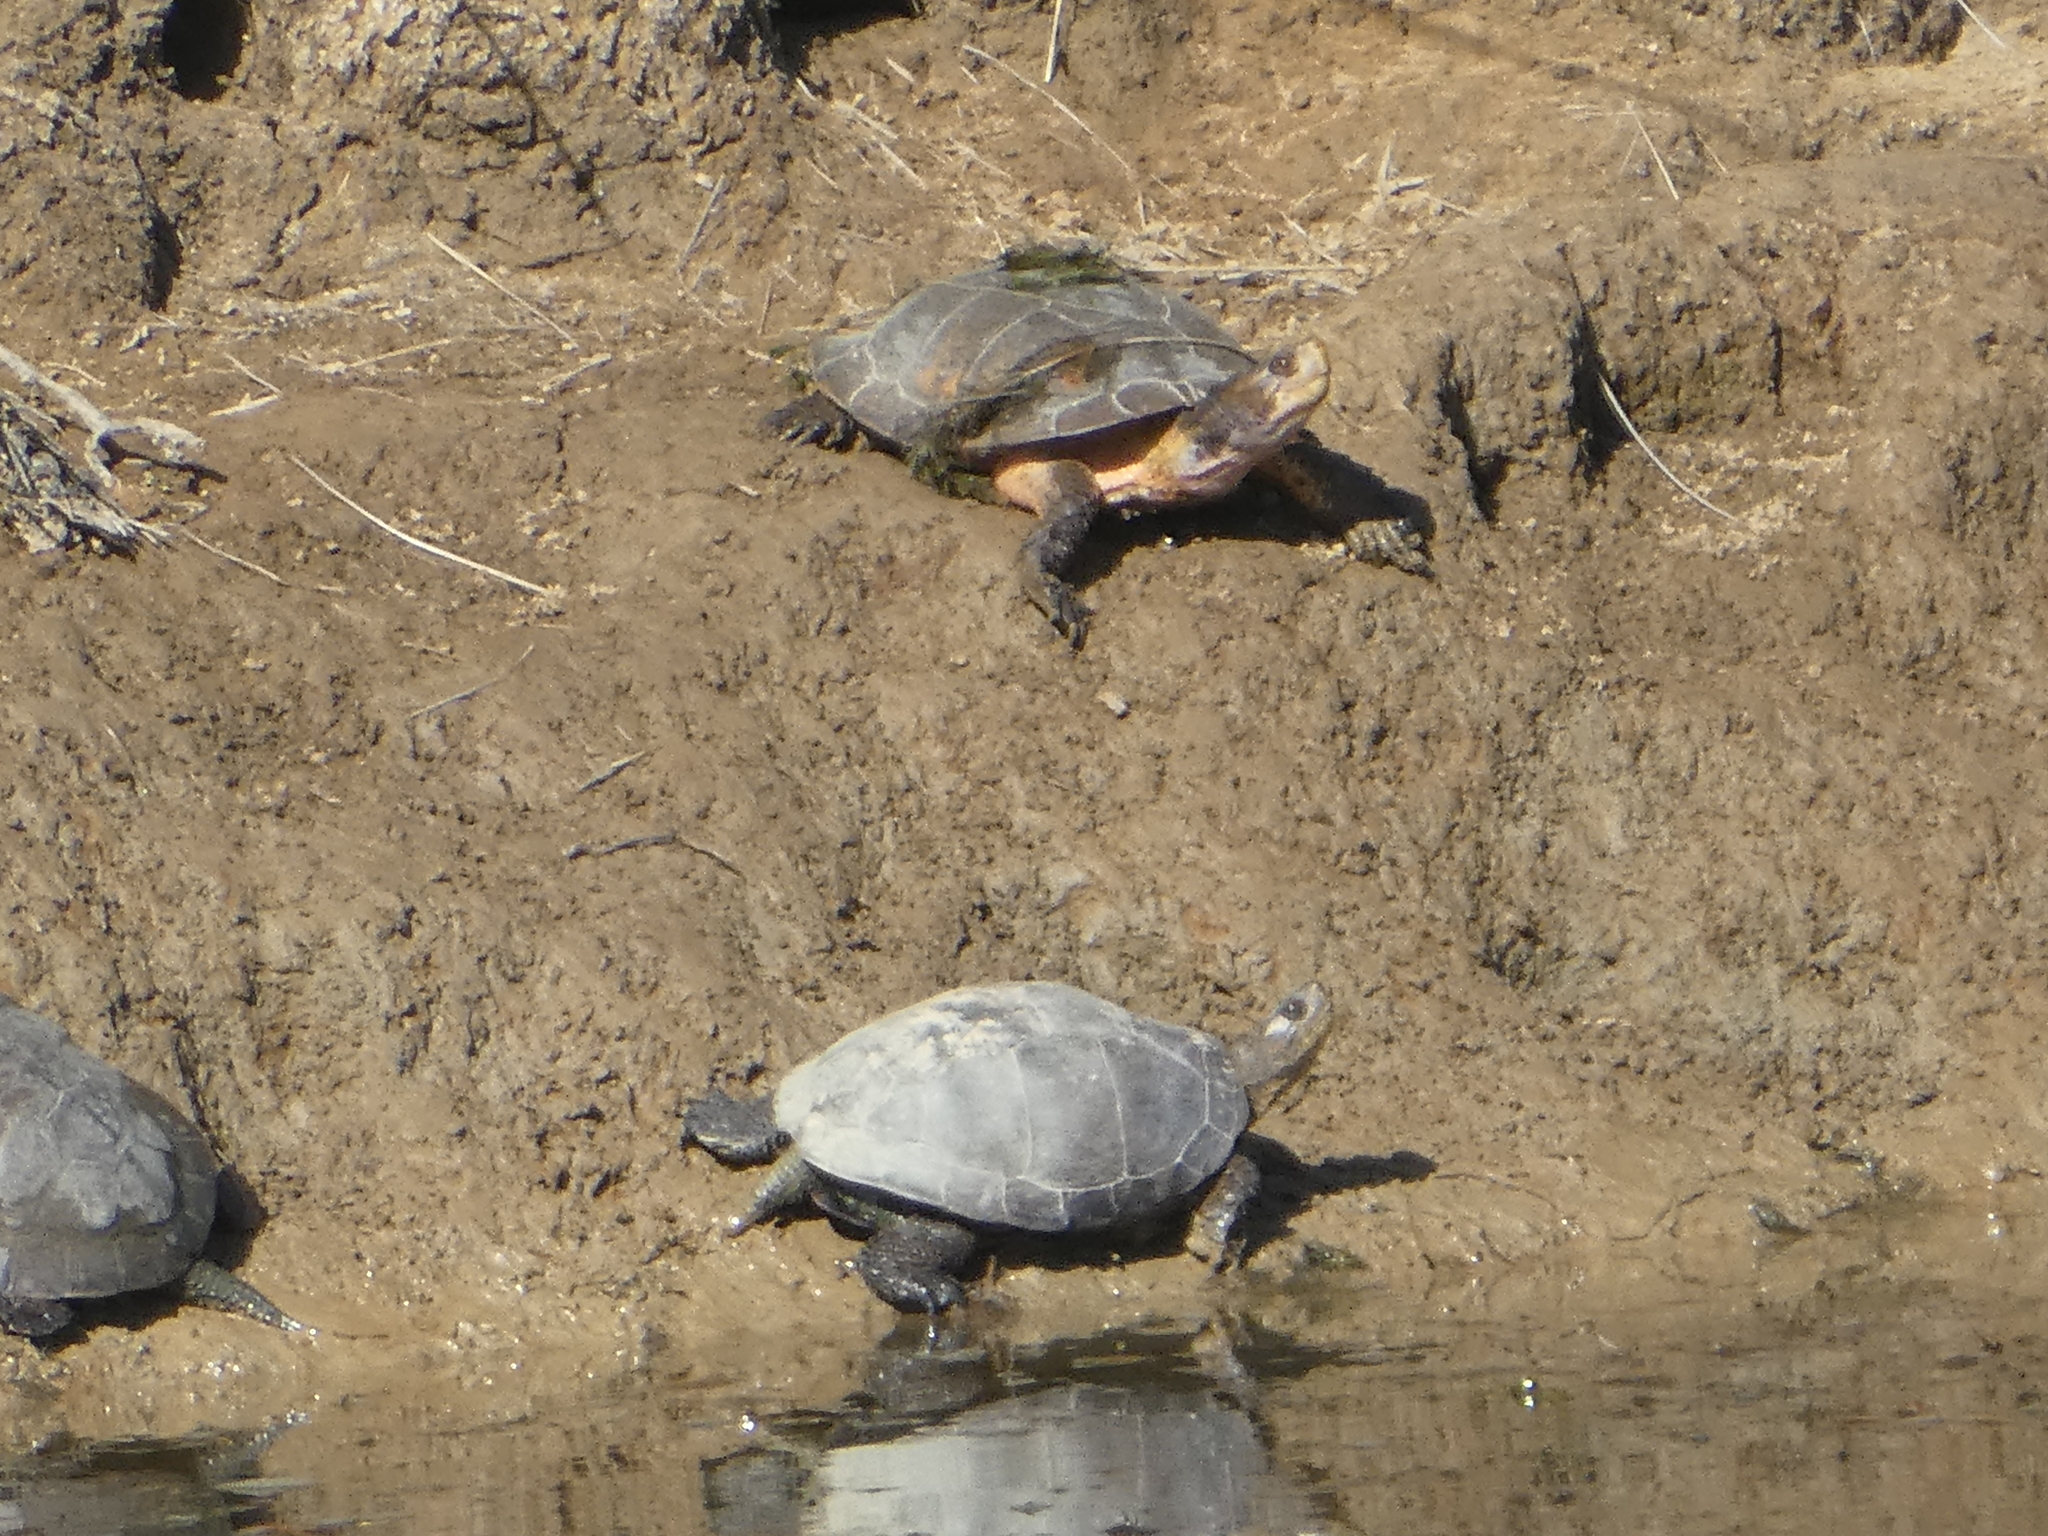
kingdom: Animalia
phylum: Chordata
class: Testudines
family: Emydidae
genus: Actinemys
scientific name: Actinemys marmorata
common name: Western pond turtle
